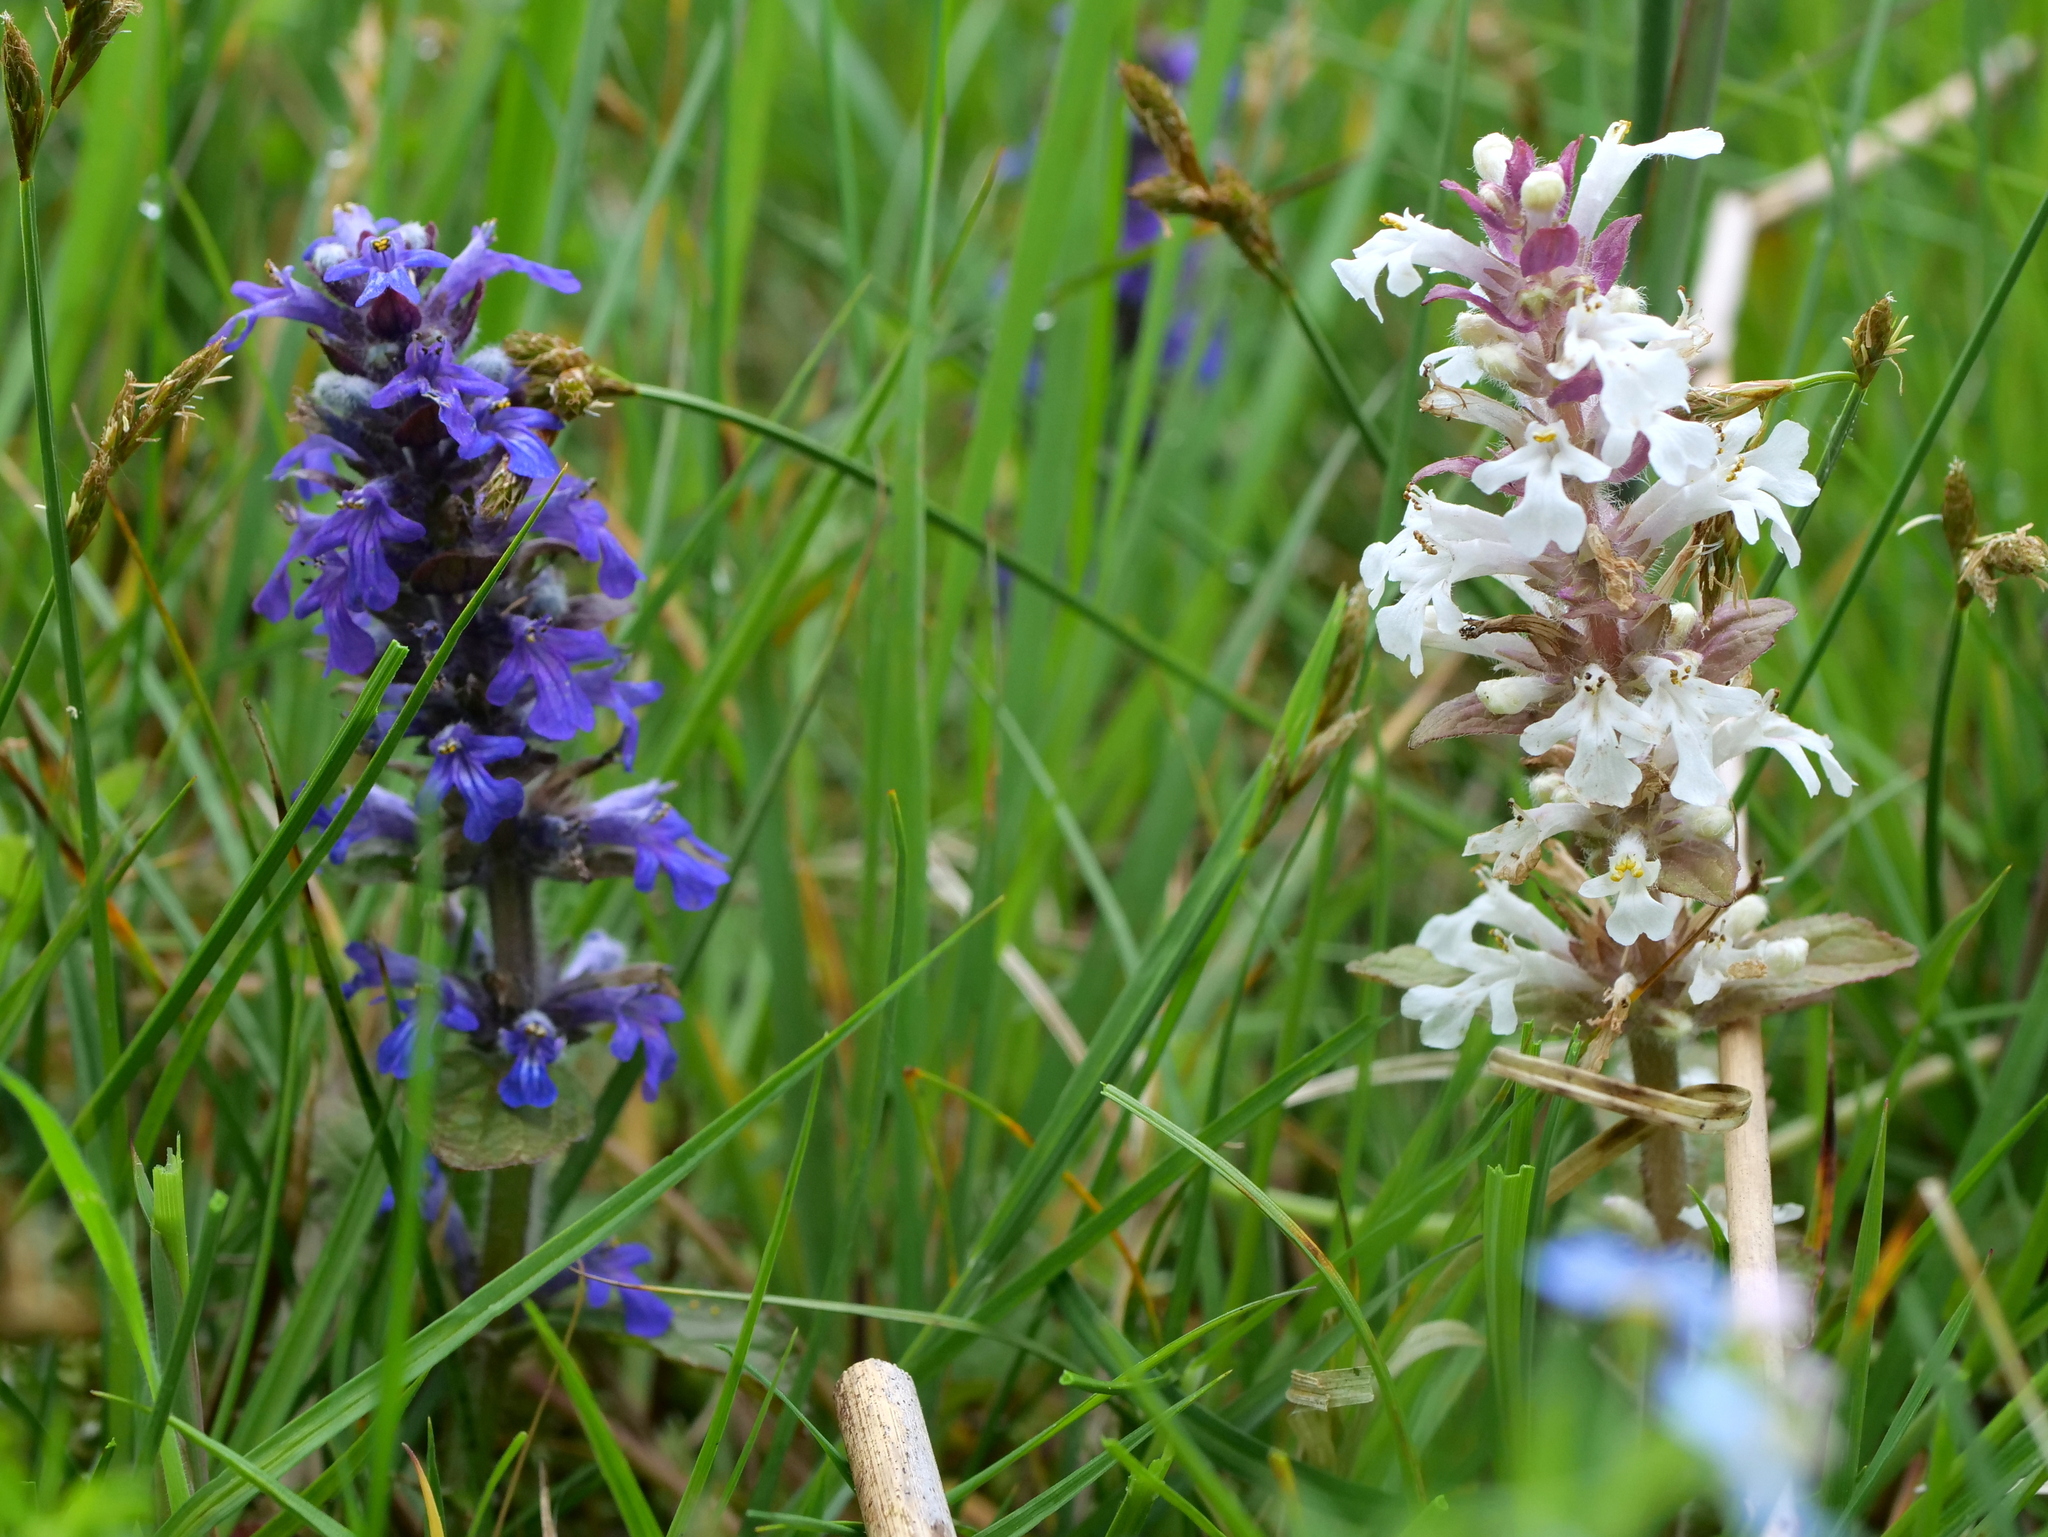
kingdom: Plantae
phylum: Tracheophyta
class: Magnoliopsida
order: Lamiales
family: Lamiaceae
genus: Ajuga
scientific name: Ajuga reptans
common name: Bugle
